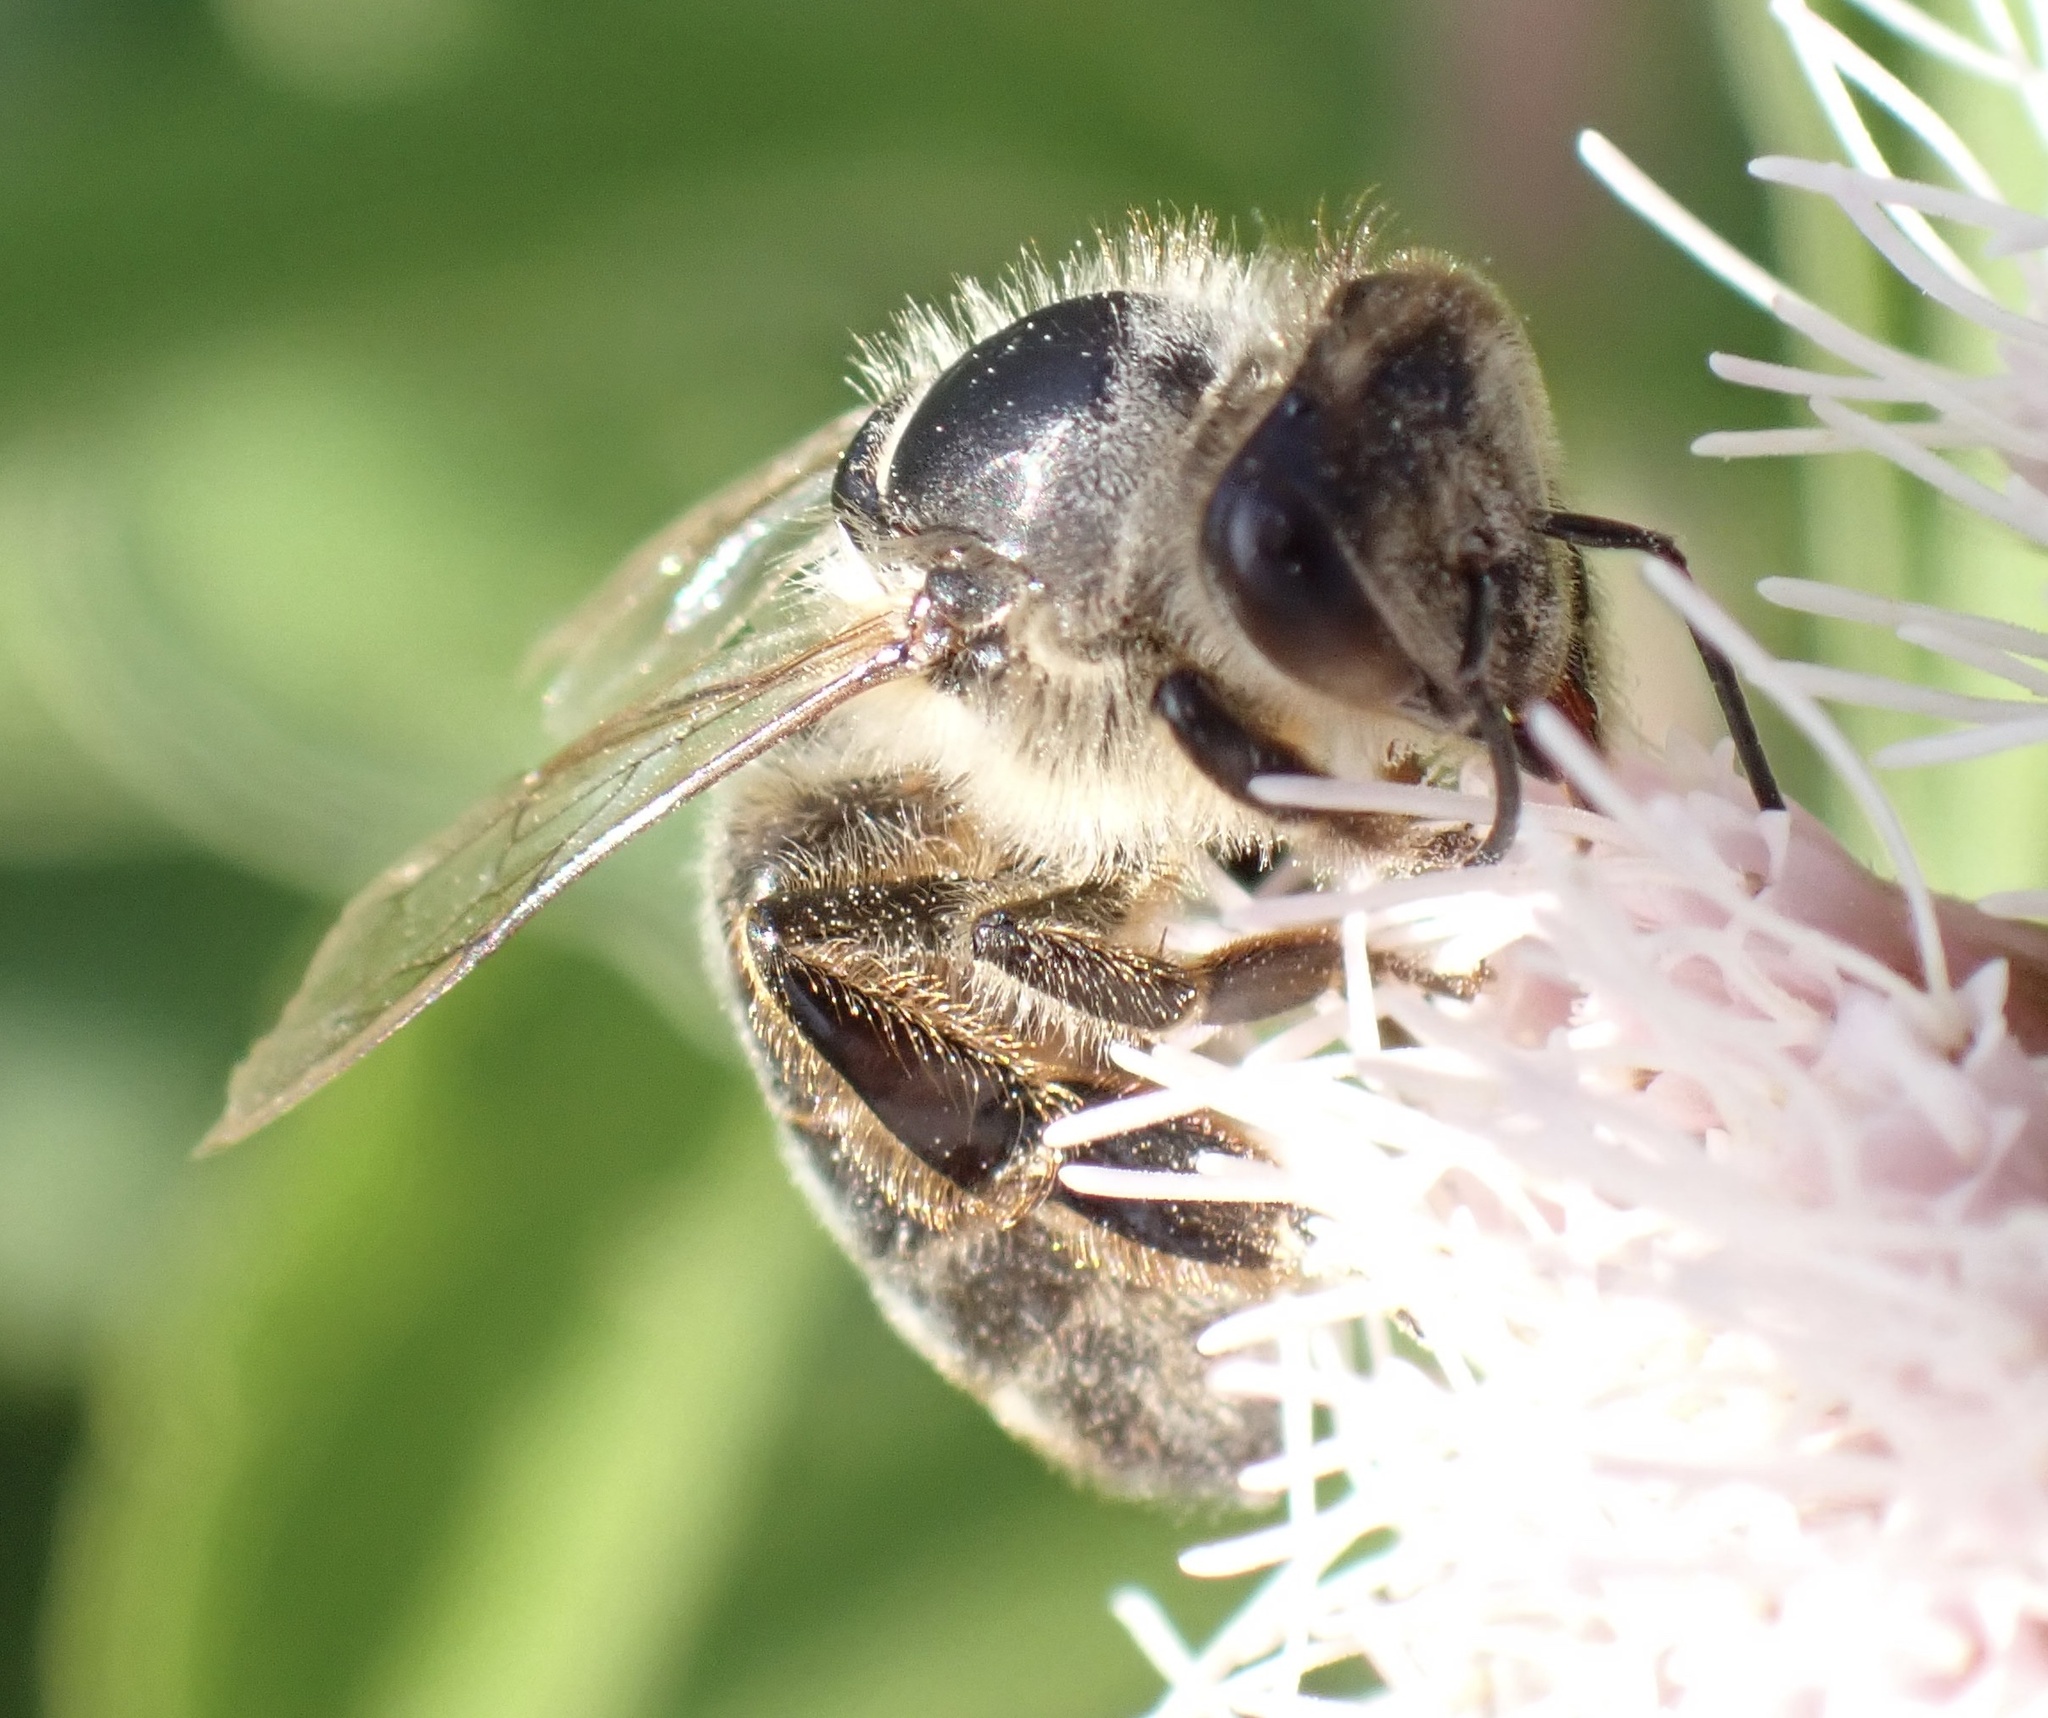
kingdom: Animalia
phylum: Arthropoda
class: Insecta
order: Hymenoptera
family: Apidae
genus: Apis
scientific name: Apis mellifera
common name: Honey bee
